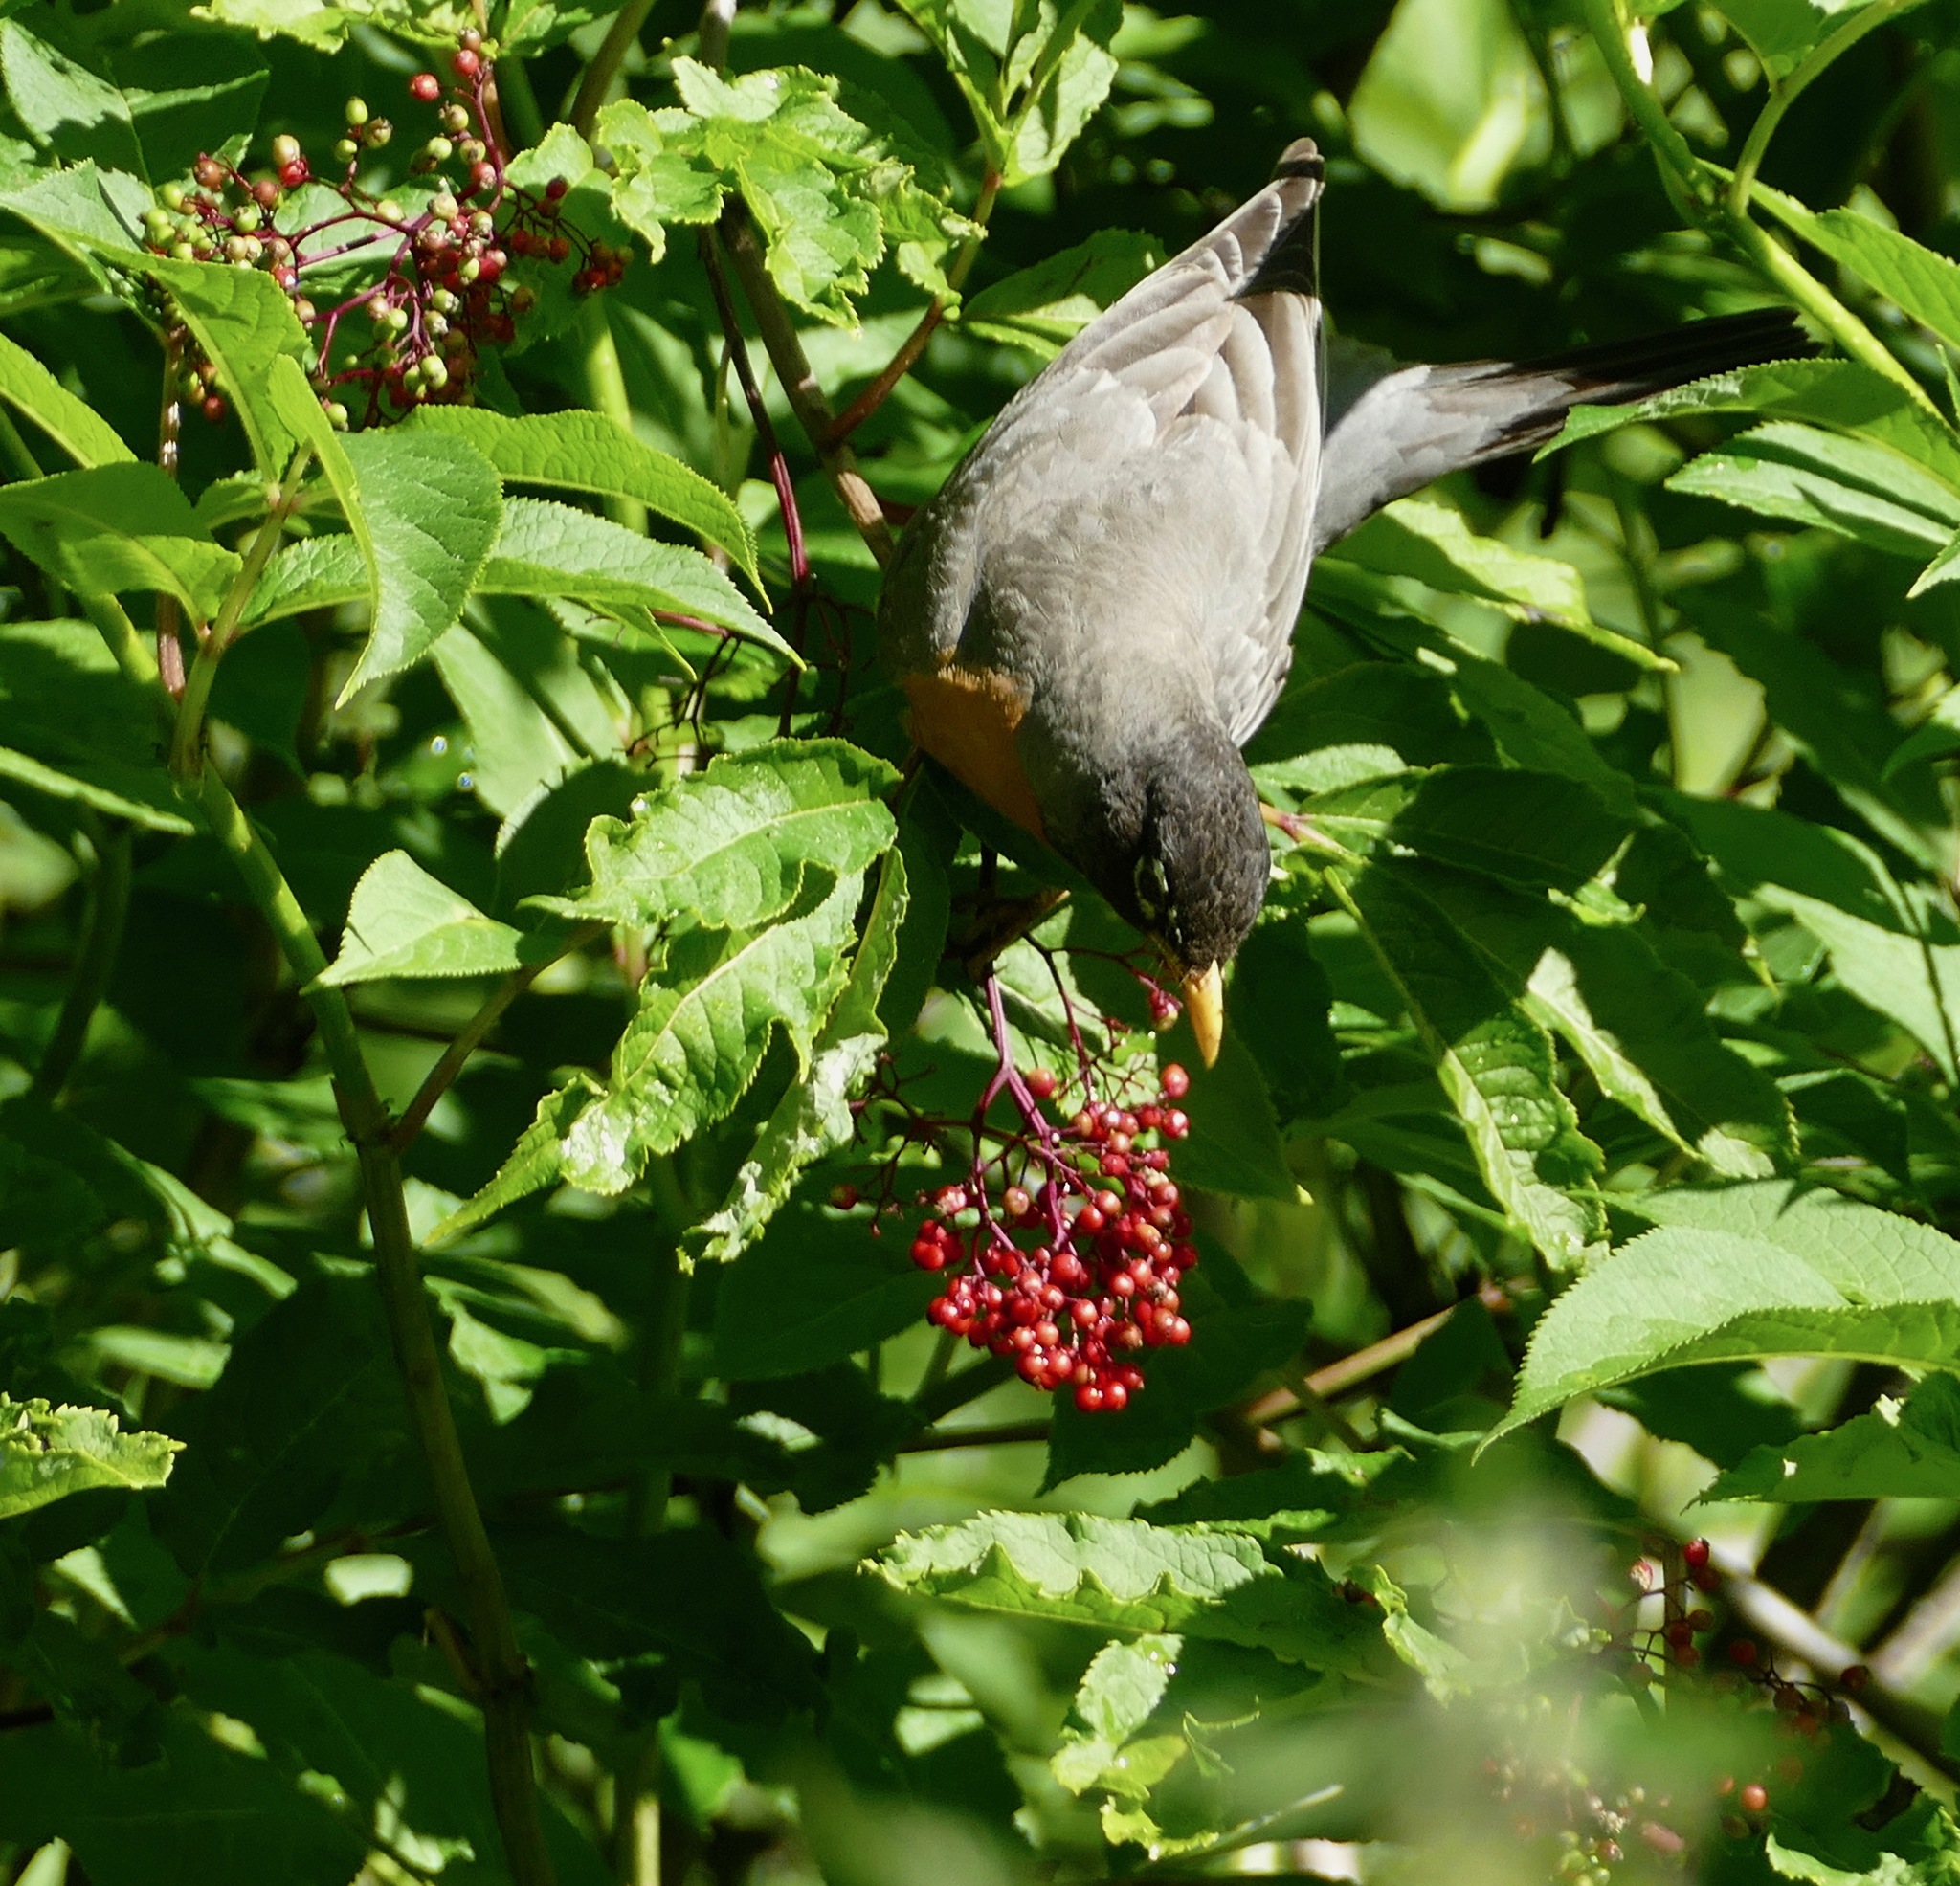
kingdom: Animalia
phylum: Chordata
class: Aves
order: Passeriformes
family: Turdidae
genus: Turdus
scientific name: Turdus migratorius
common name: American robin
